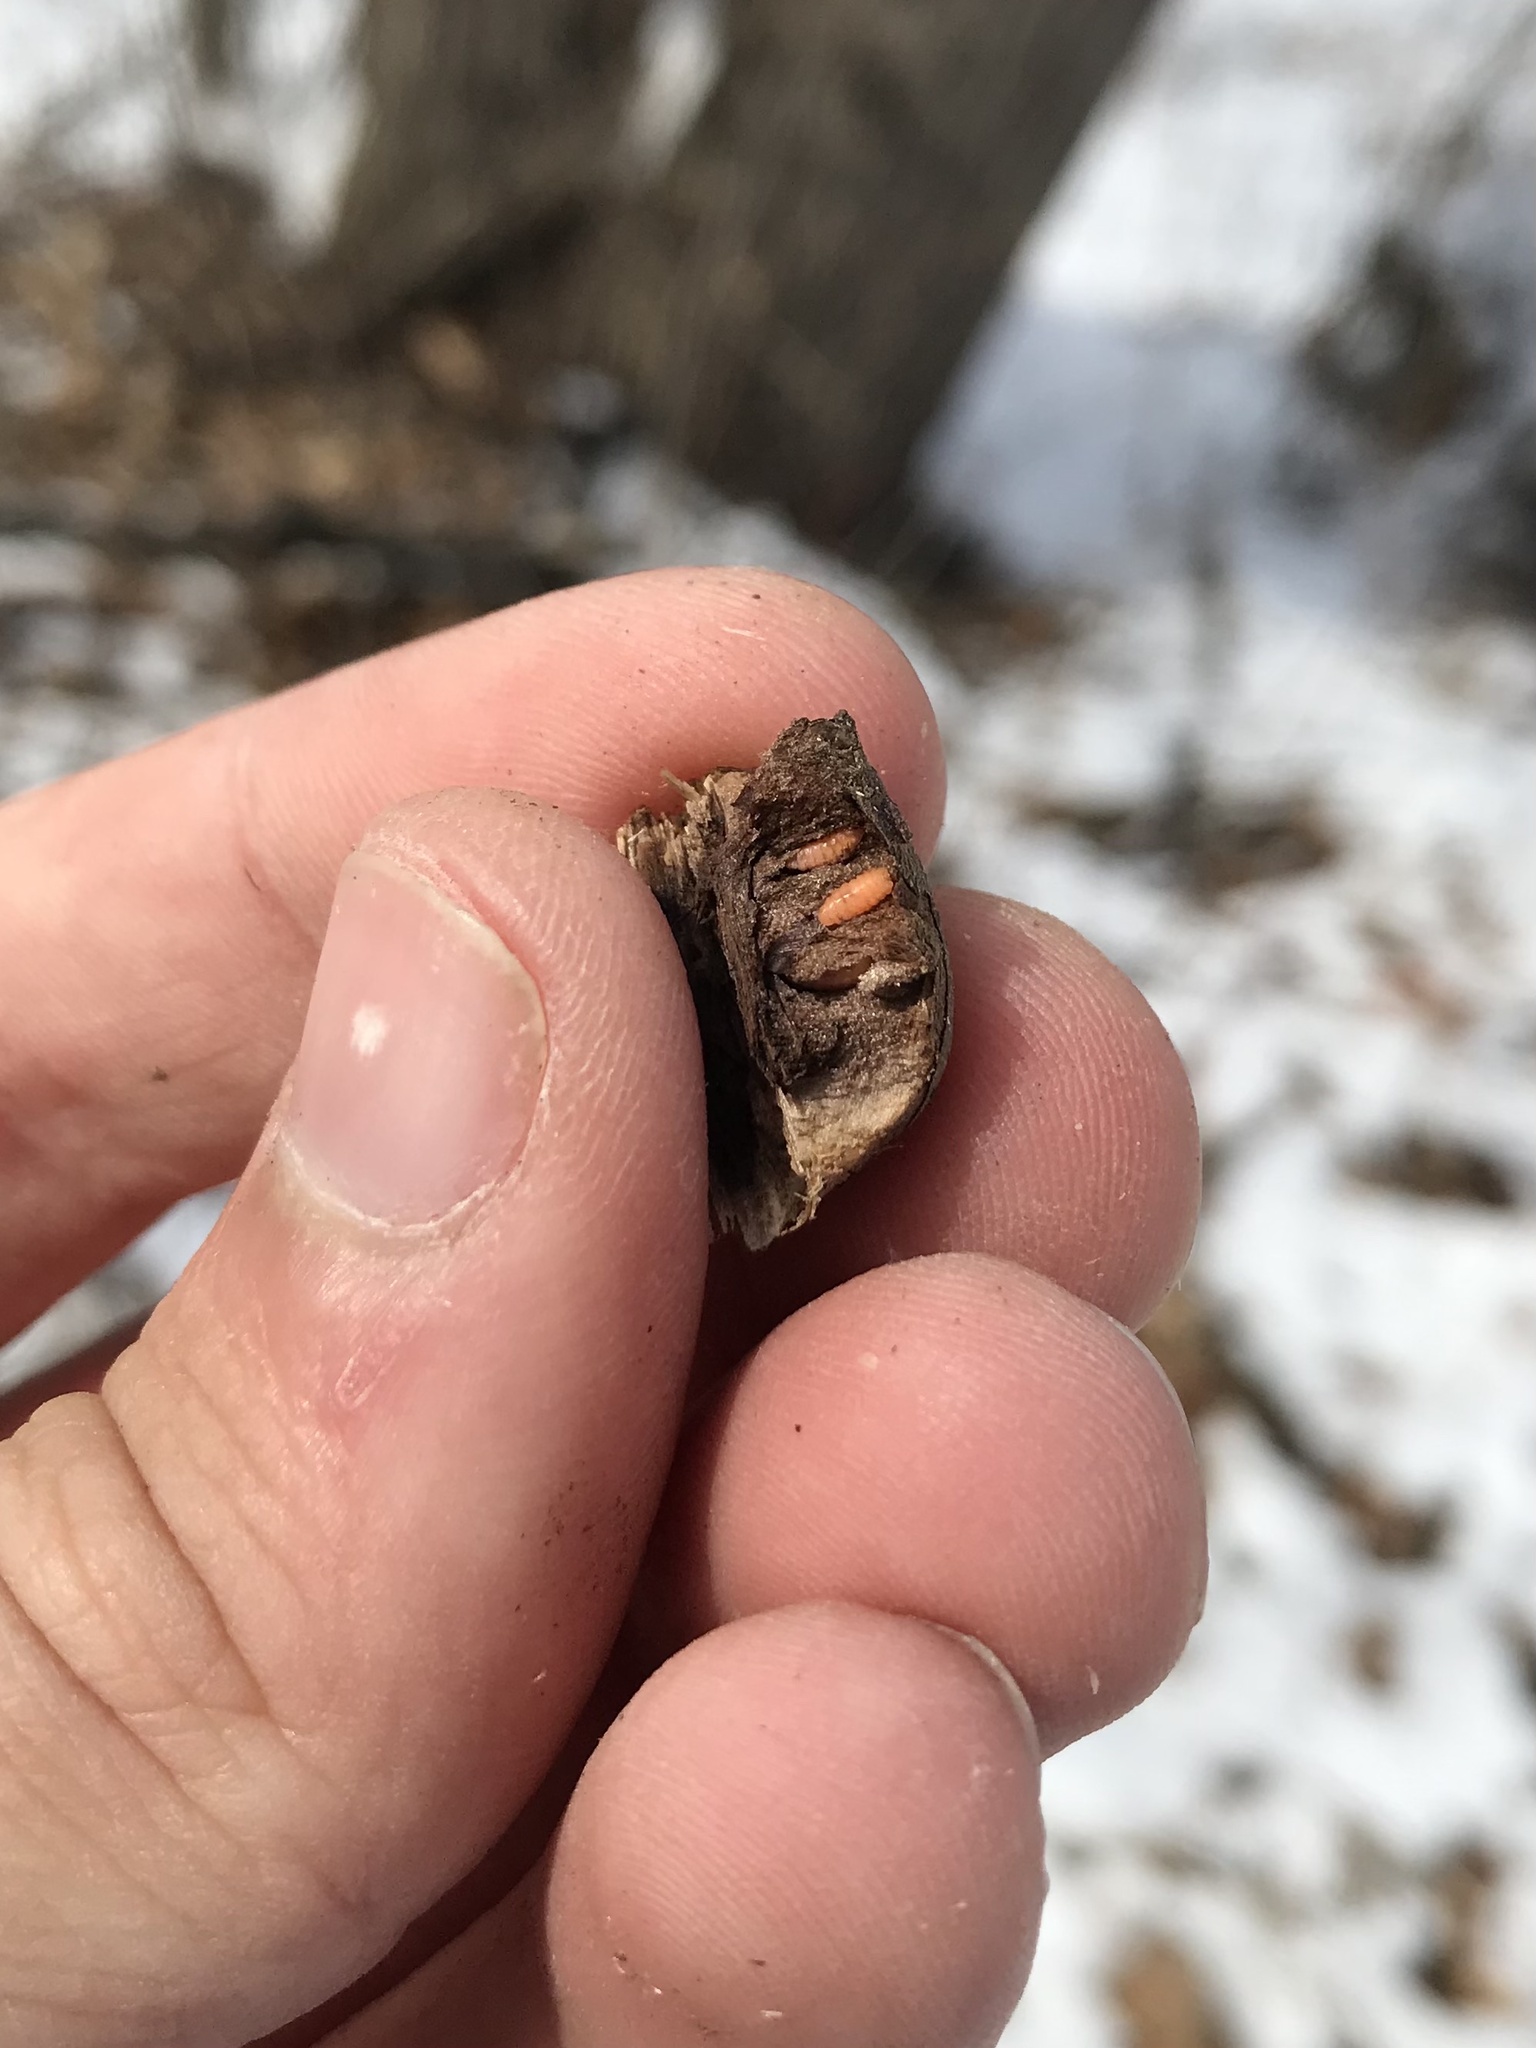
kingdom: Animalia
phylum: Arthropoda
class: Insecta
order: Diptera
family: Cecidomyiidae
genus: Asteromyia
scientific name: Asteromyia tumifica
